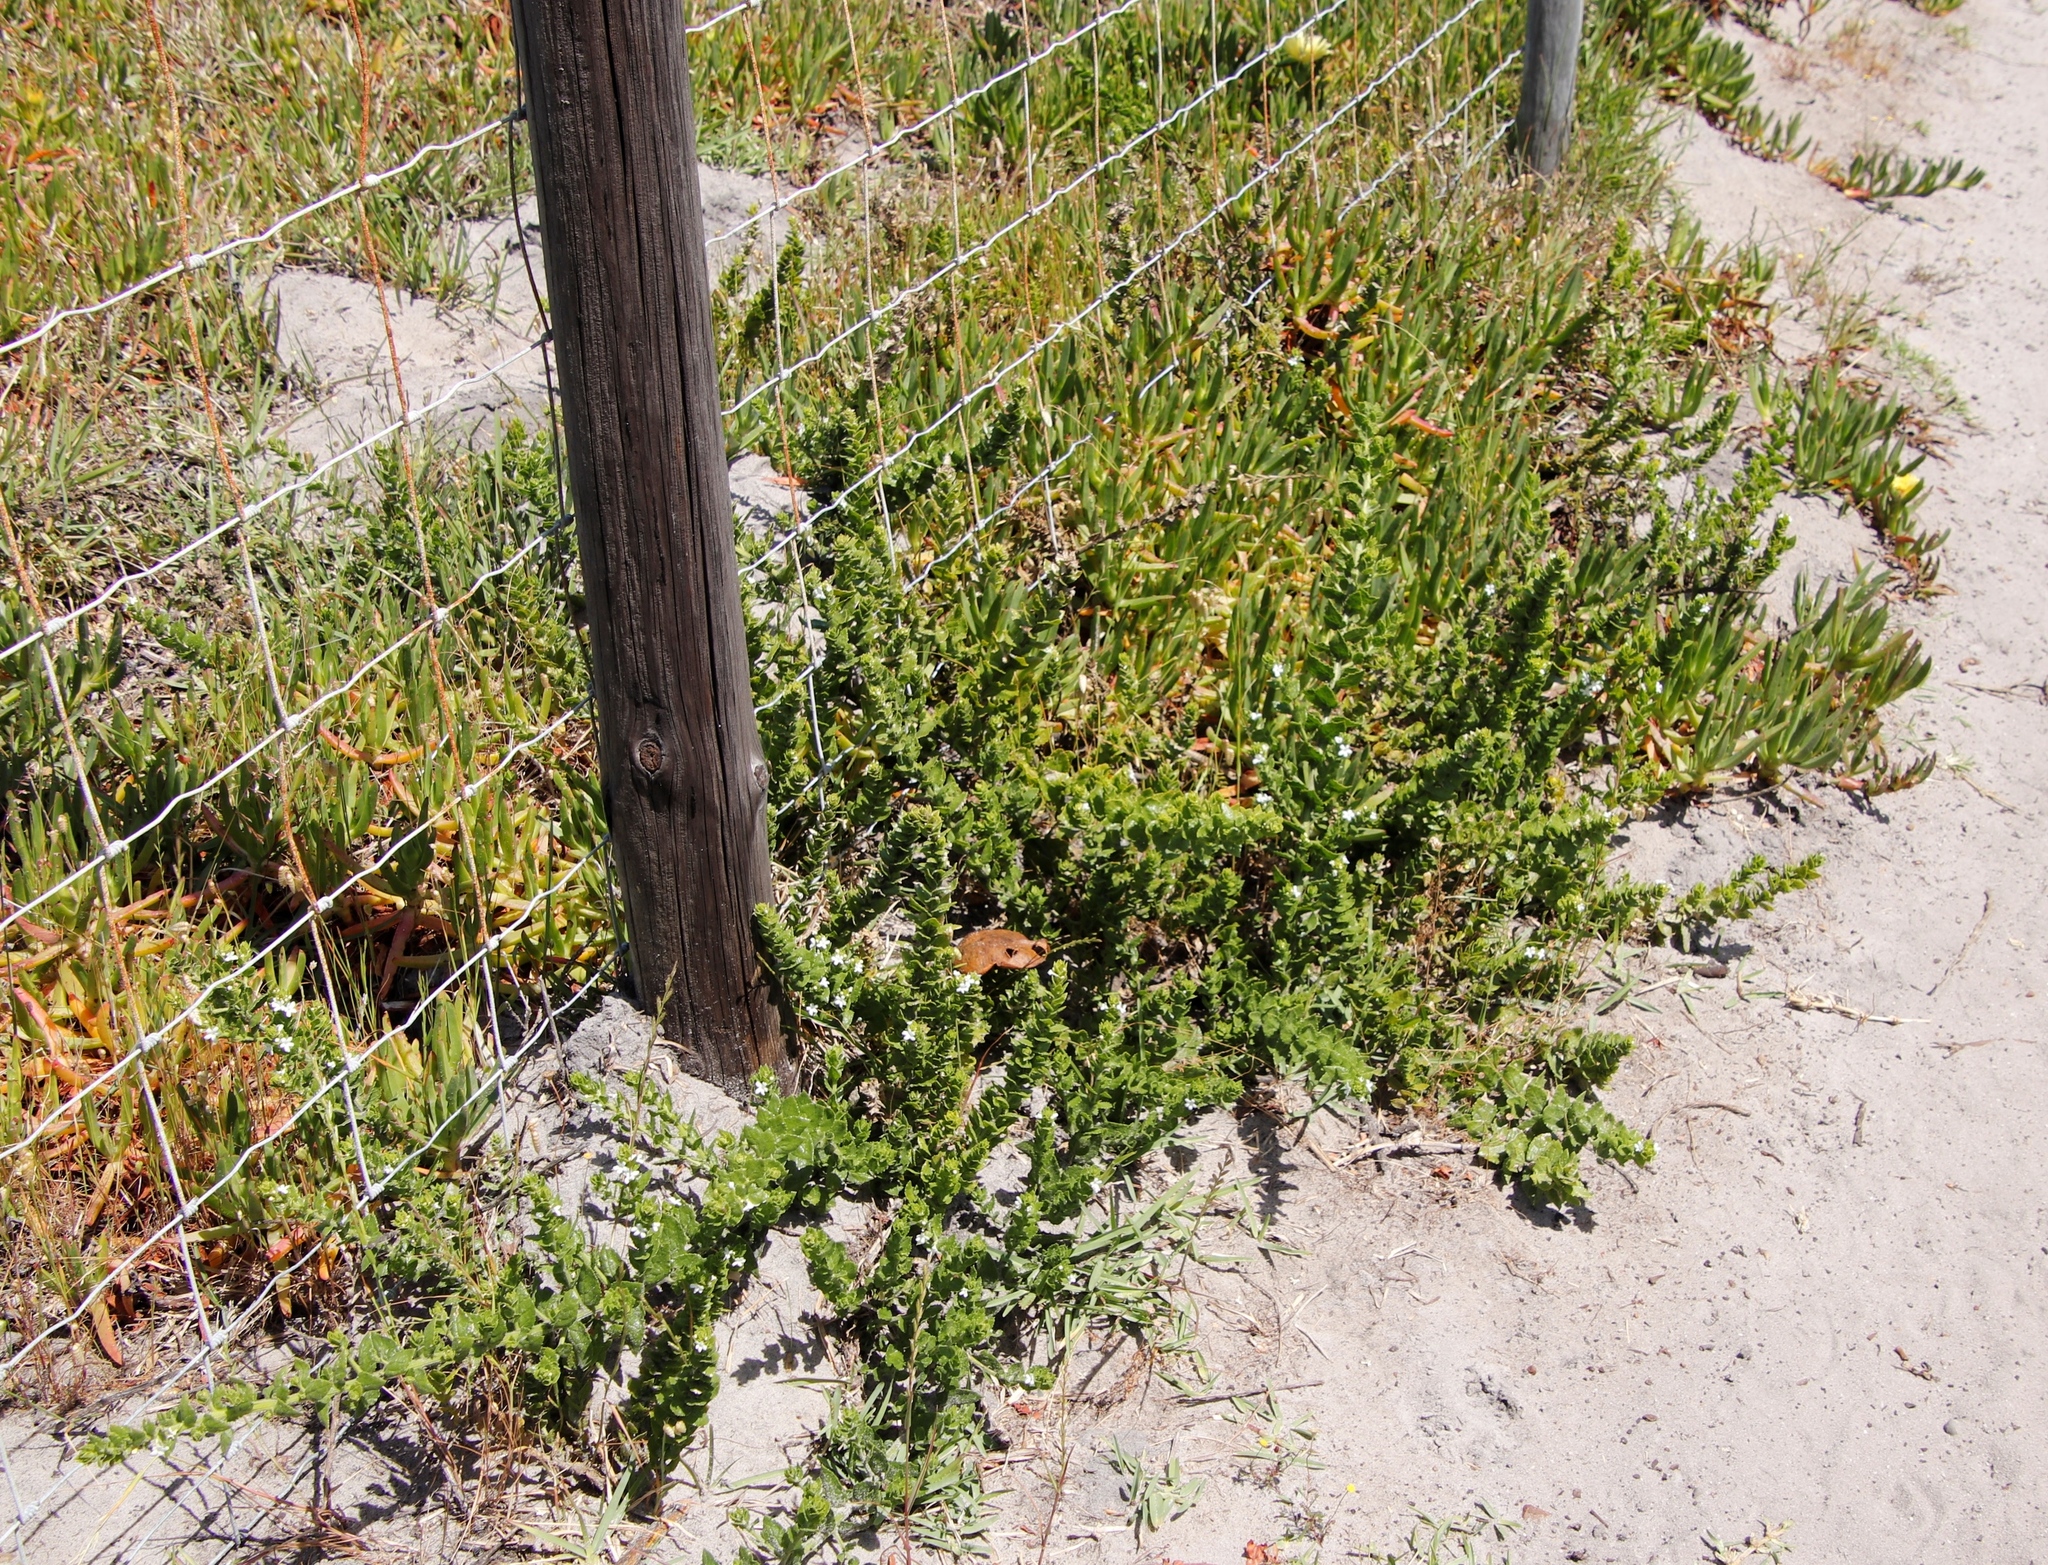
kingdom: Plantae
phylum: Tracheophyta
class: Magnoliopsida
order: Lamiales
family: Scrophulariaceae
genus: Oftia
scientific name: Oftia africana
